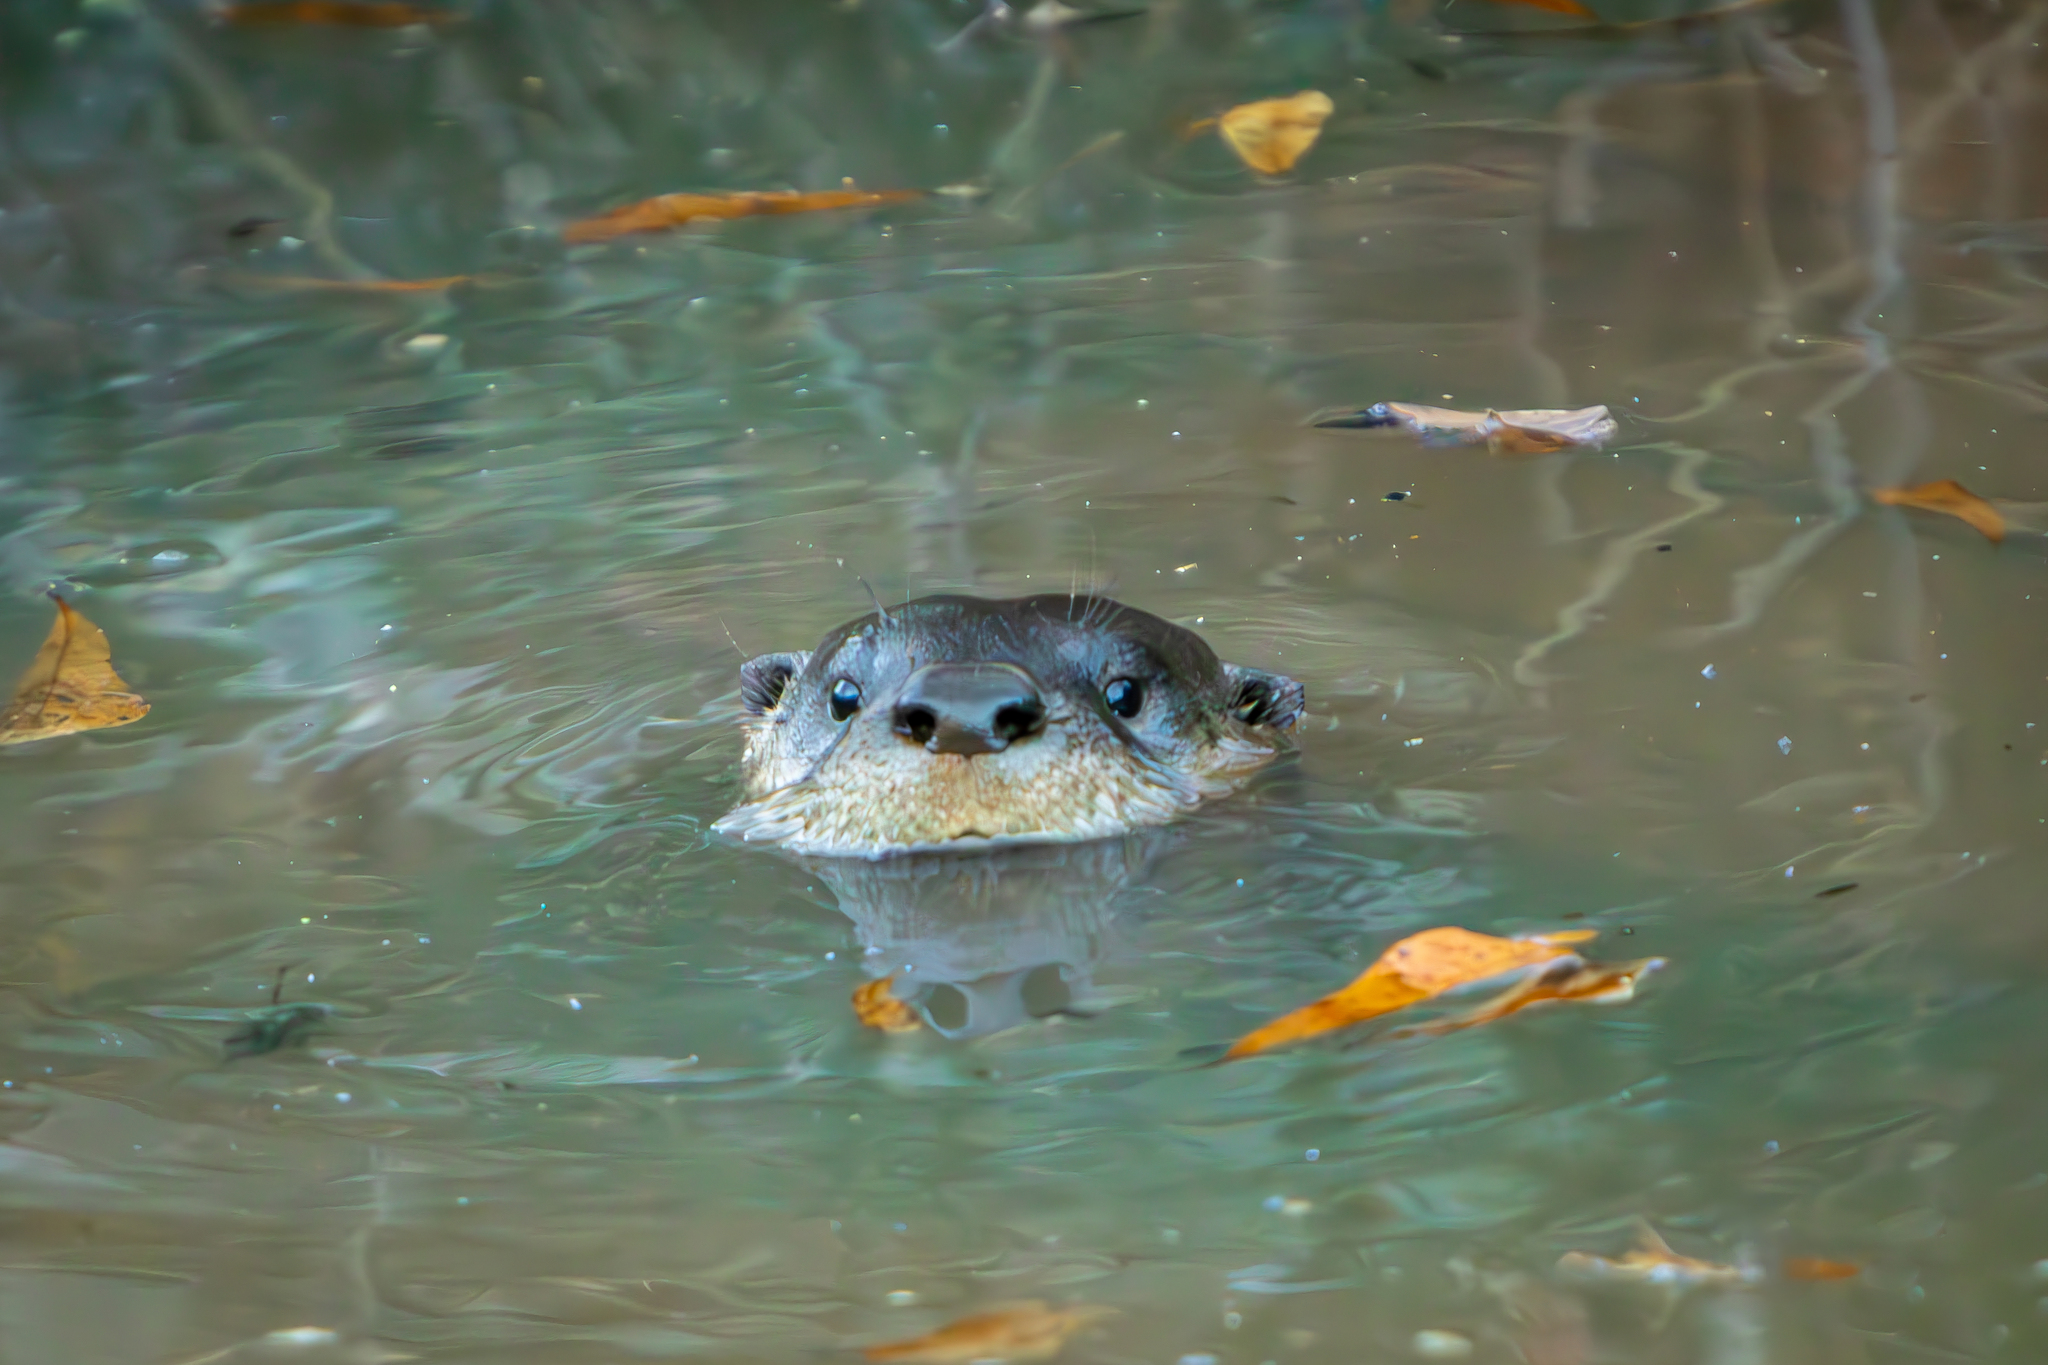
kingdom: Animalia
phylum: Chordata
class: Mammalia
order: Carnivora
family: Mustelidae
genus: Lontra
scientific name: Lontra canadensis
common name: North american river otter
